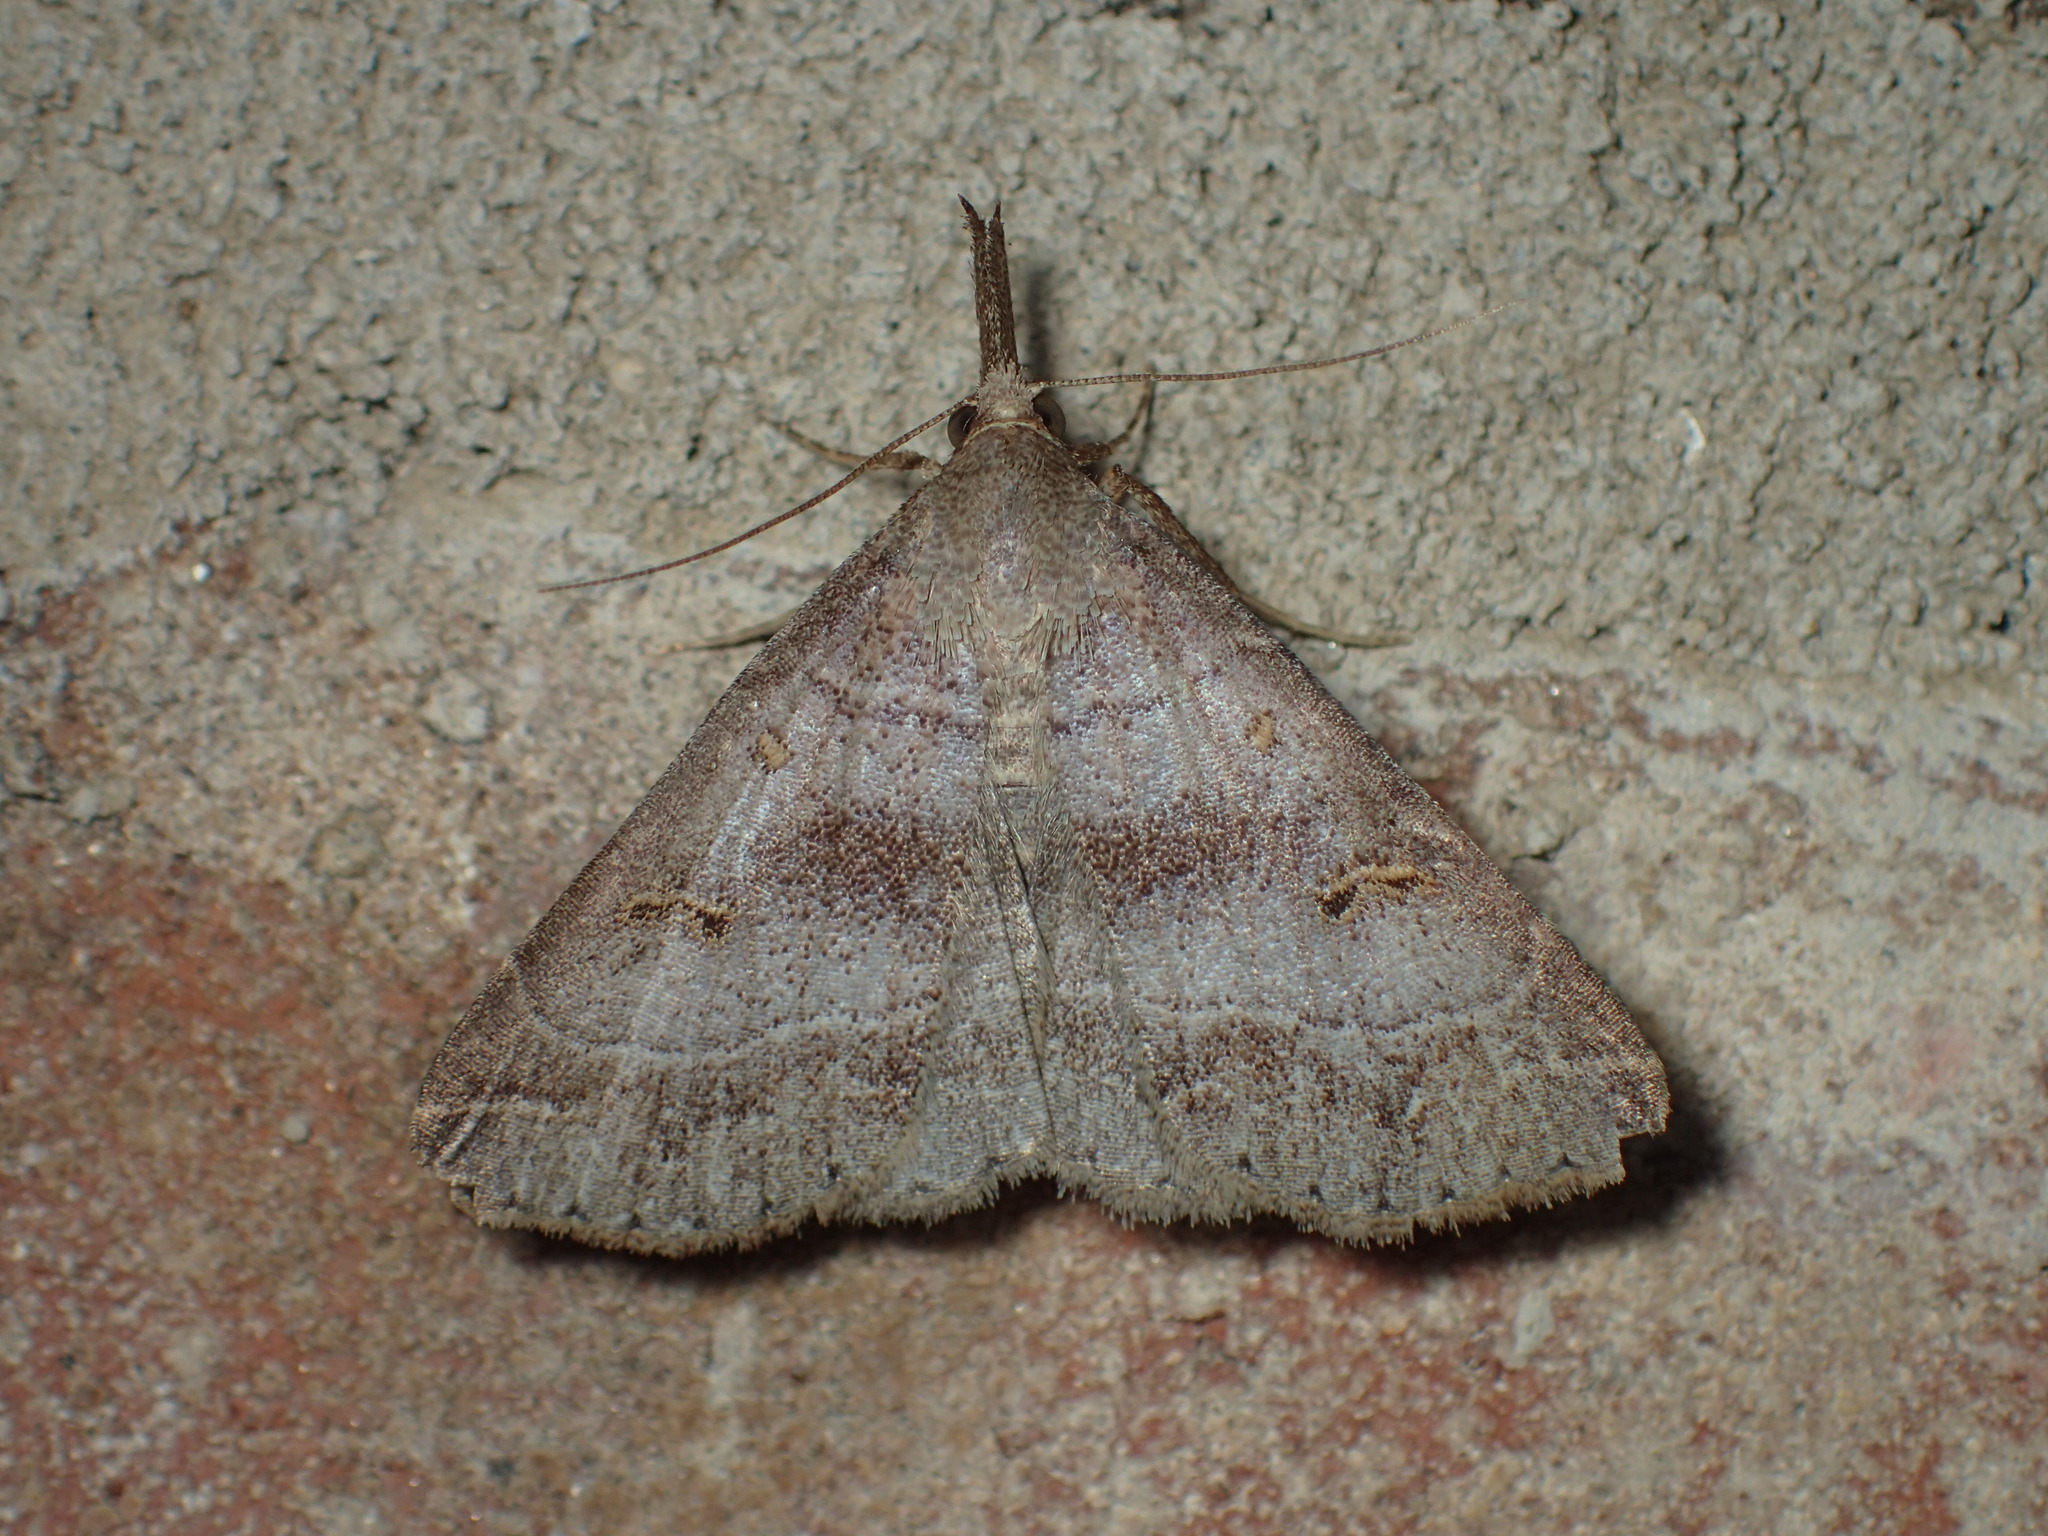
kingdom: Animalia
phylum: Arthropoda
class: Insecta
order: Lepidoptera
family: Erebidae
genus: Renia
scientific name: Renia flavipunctalis
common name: Yellow-spotted renia moth
